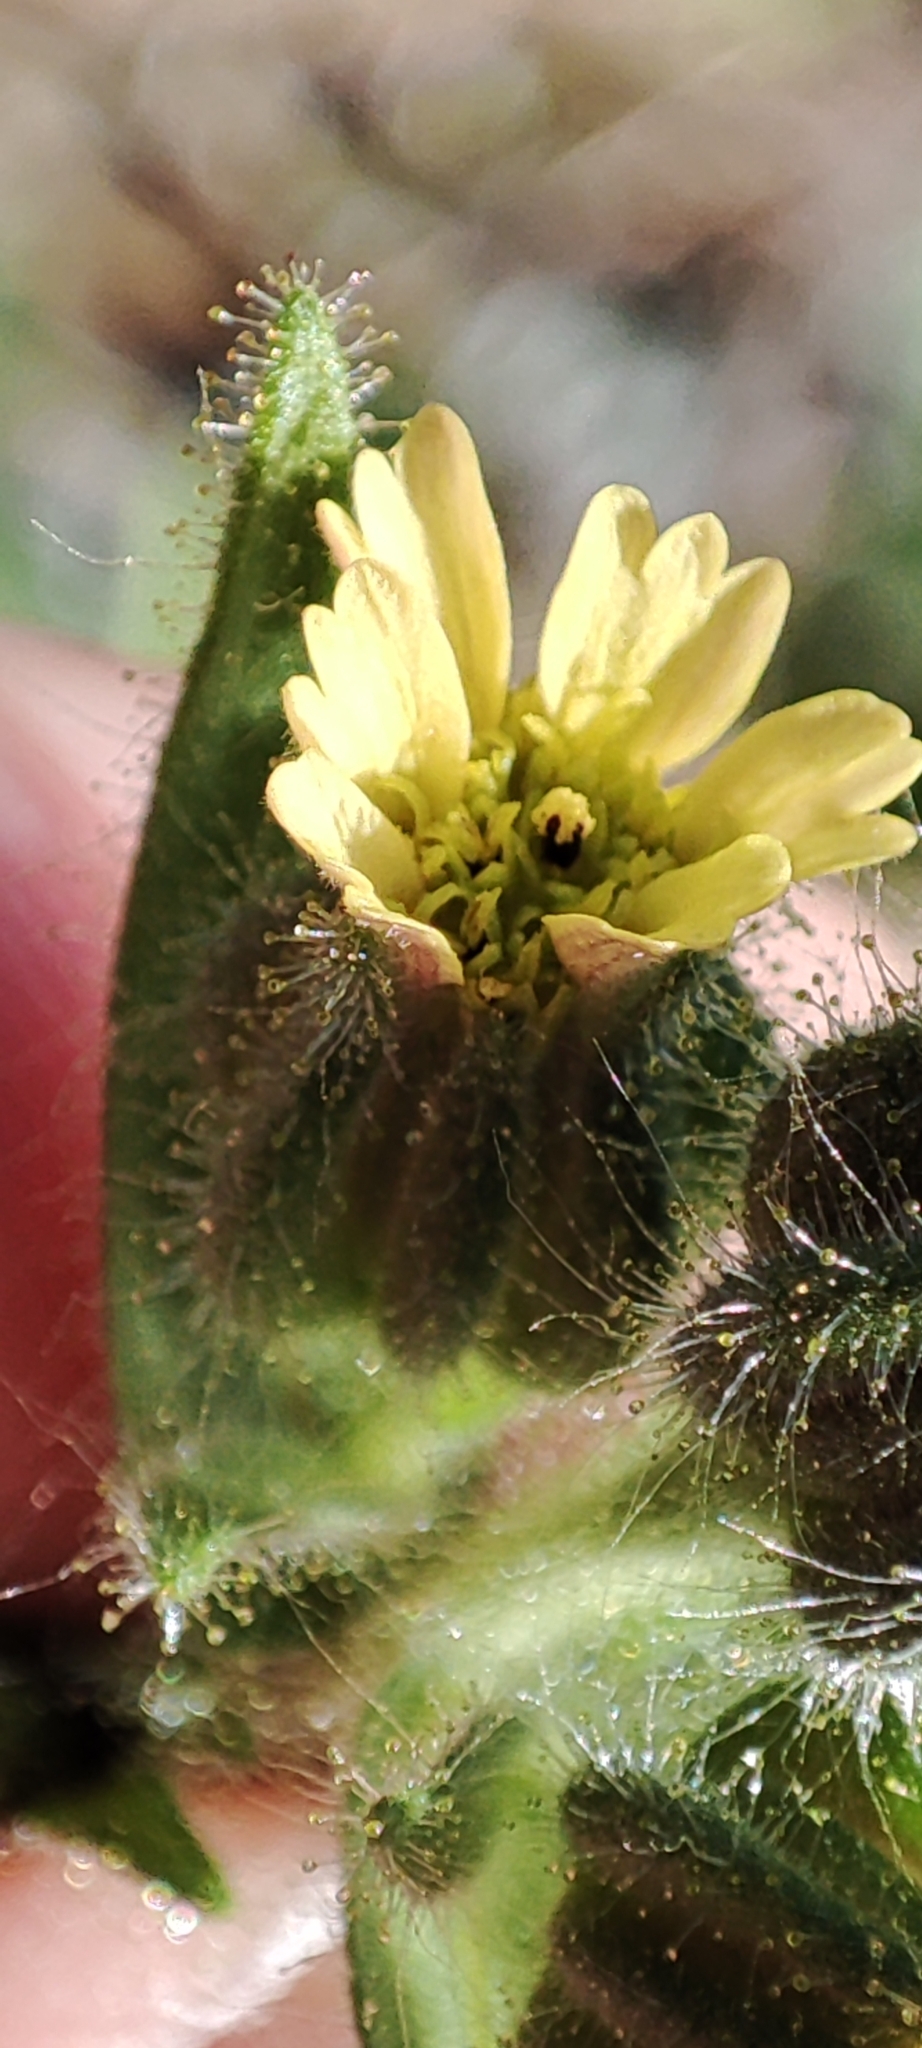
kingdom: Plantae
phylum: Tracheophyta
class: Magnoliopsida
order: Asterales
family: Asteraceae
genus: Madia
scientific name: Madia sativa
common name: Coast tarweed
